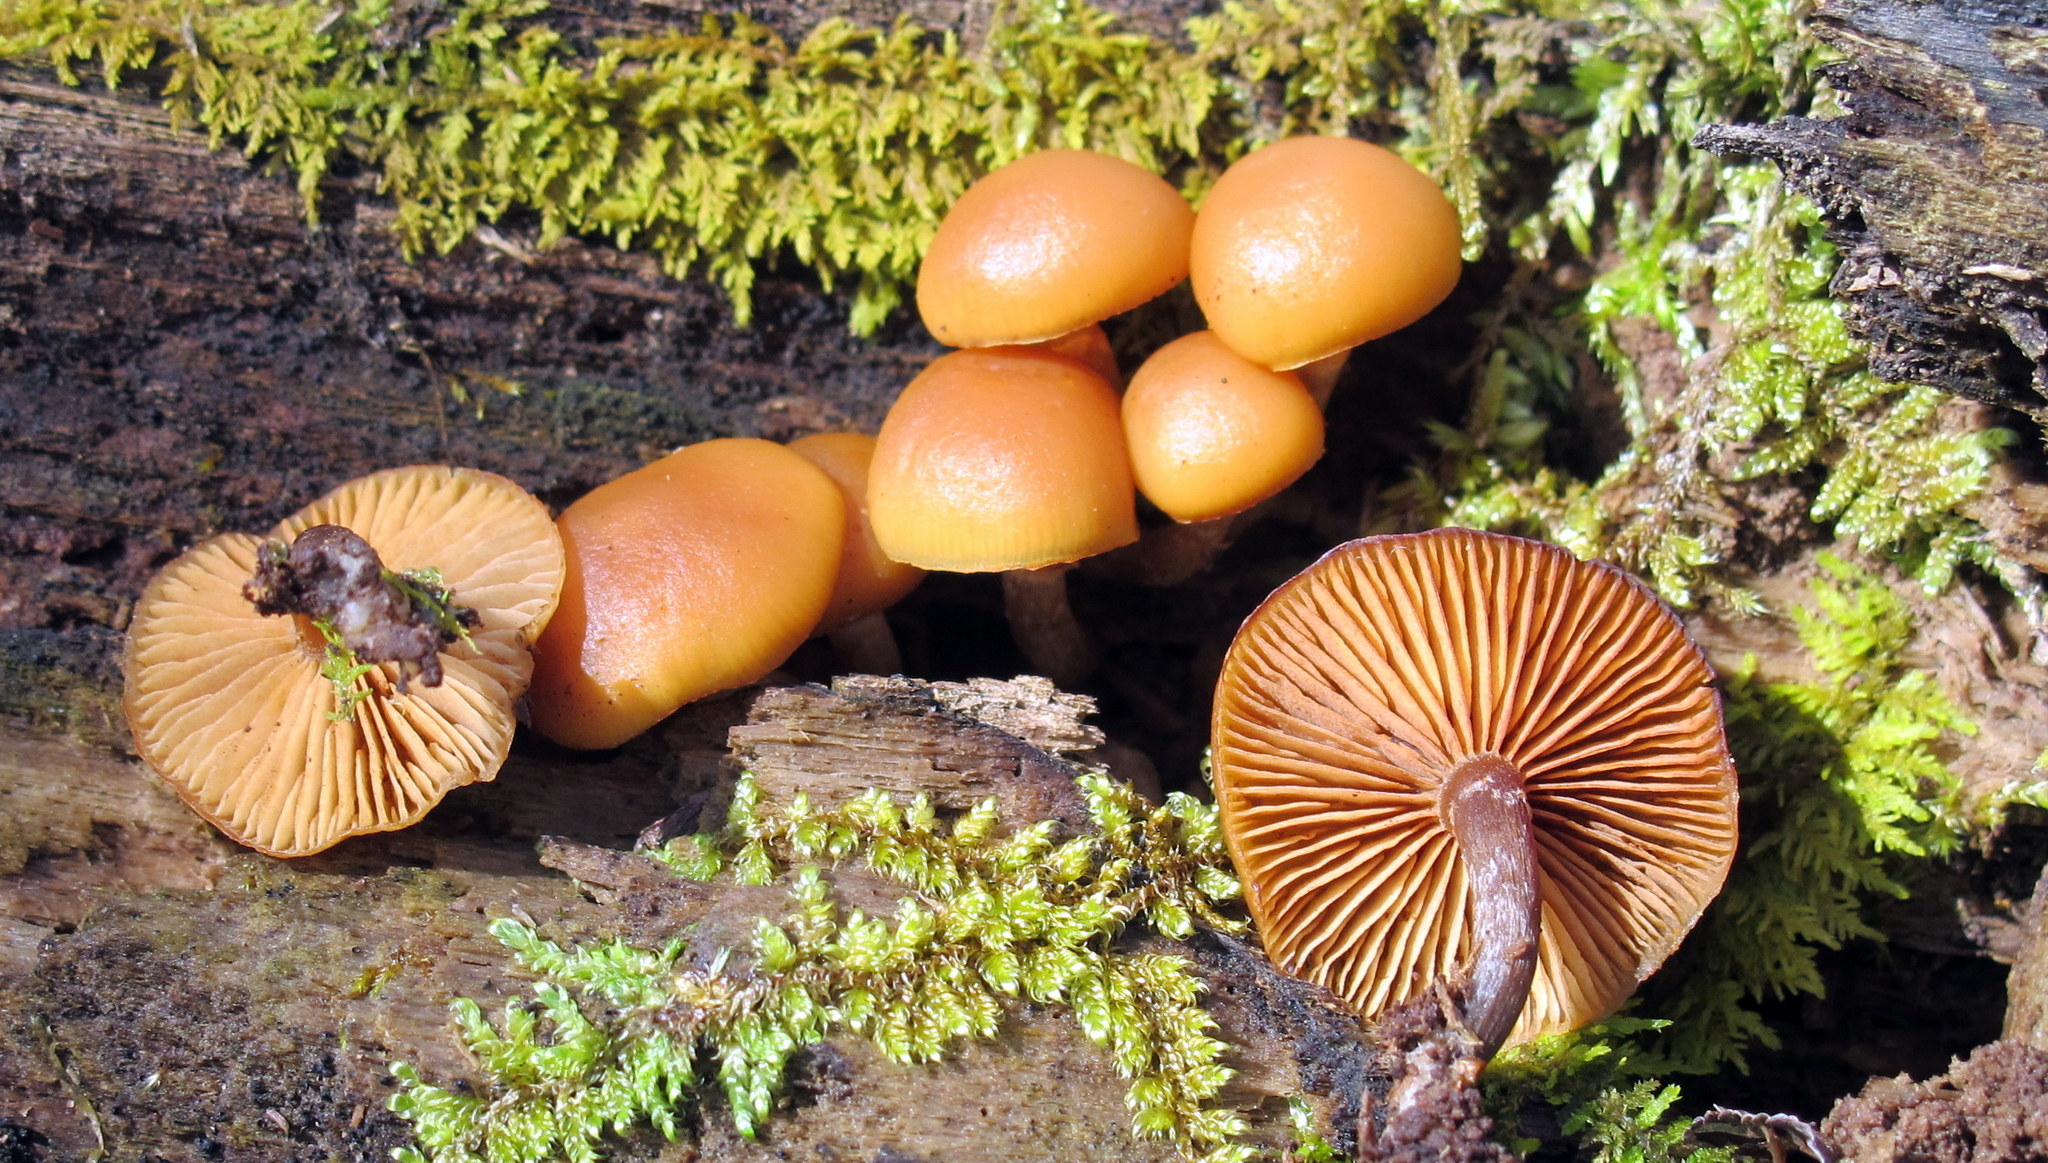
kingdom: Fungi
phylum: Basidiomycota
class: Agaricomycetes
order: Agaricales
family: Hymenogastraceae
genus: Galerina
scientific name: Galerina marginata
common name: Funeral bell
